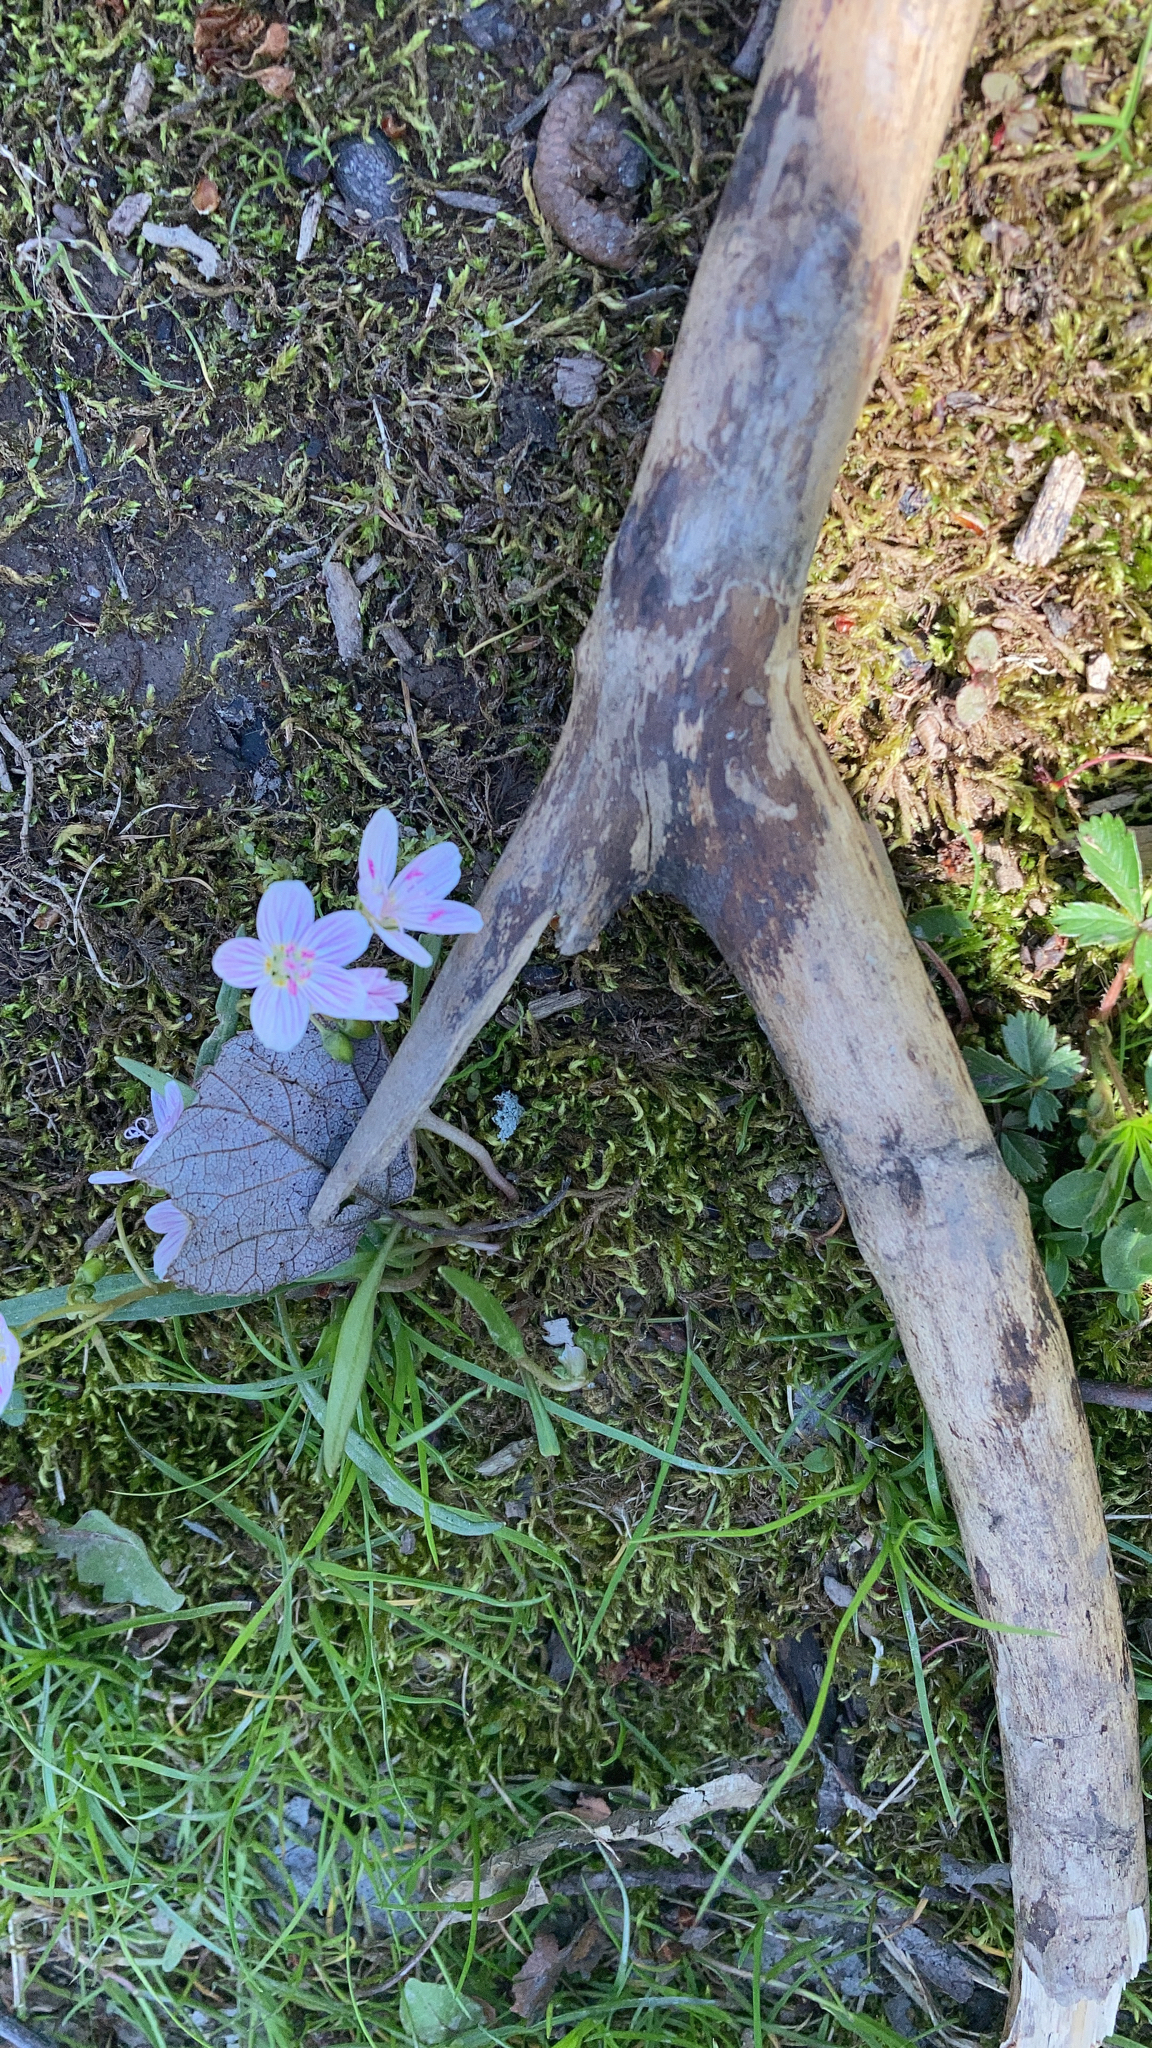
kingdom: Plantae
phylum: Tracheophyta
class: Magnoliopsida
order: Caryophyllales
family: Montiaceae
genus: Claytonia
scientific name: Claytonia virginica
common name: Virginia springbeauty
